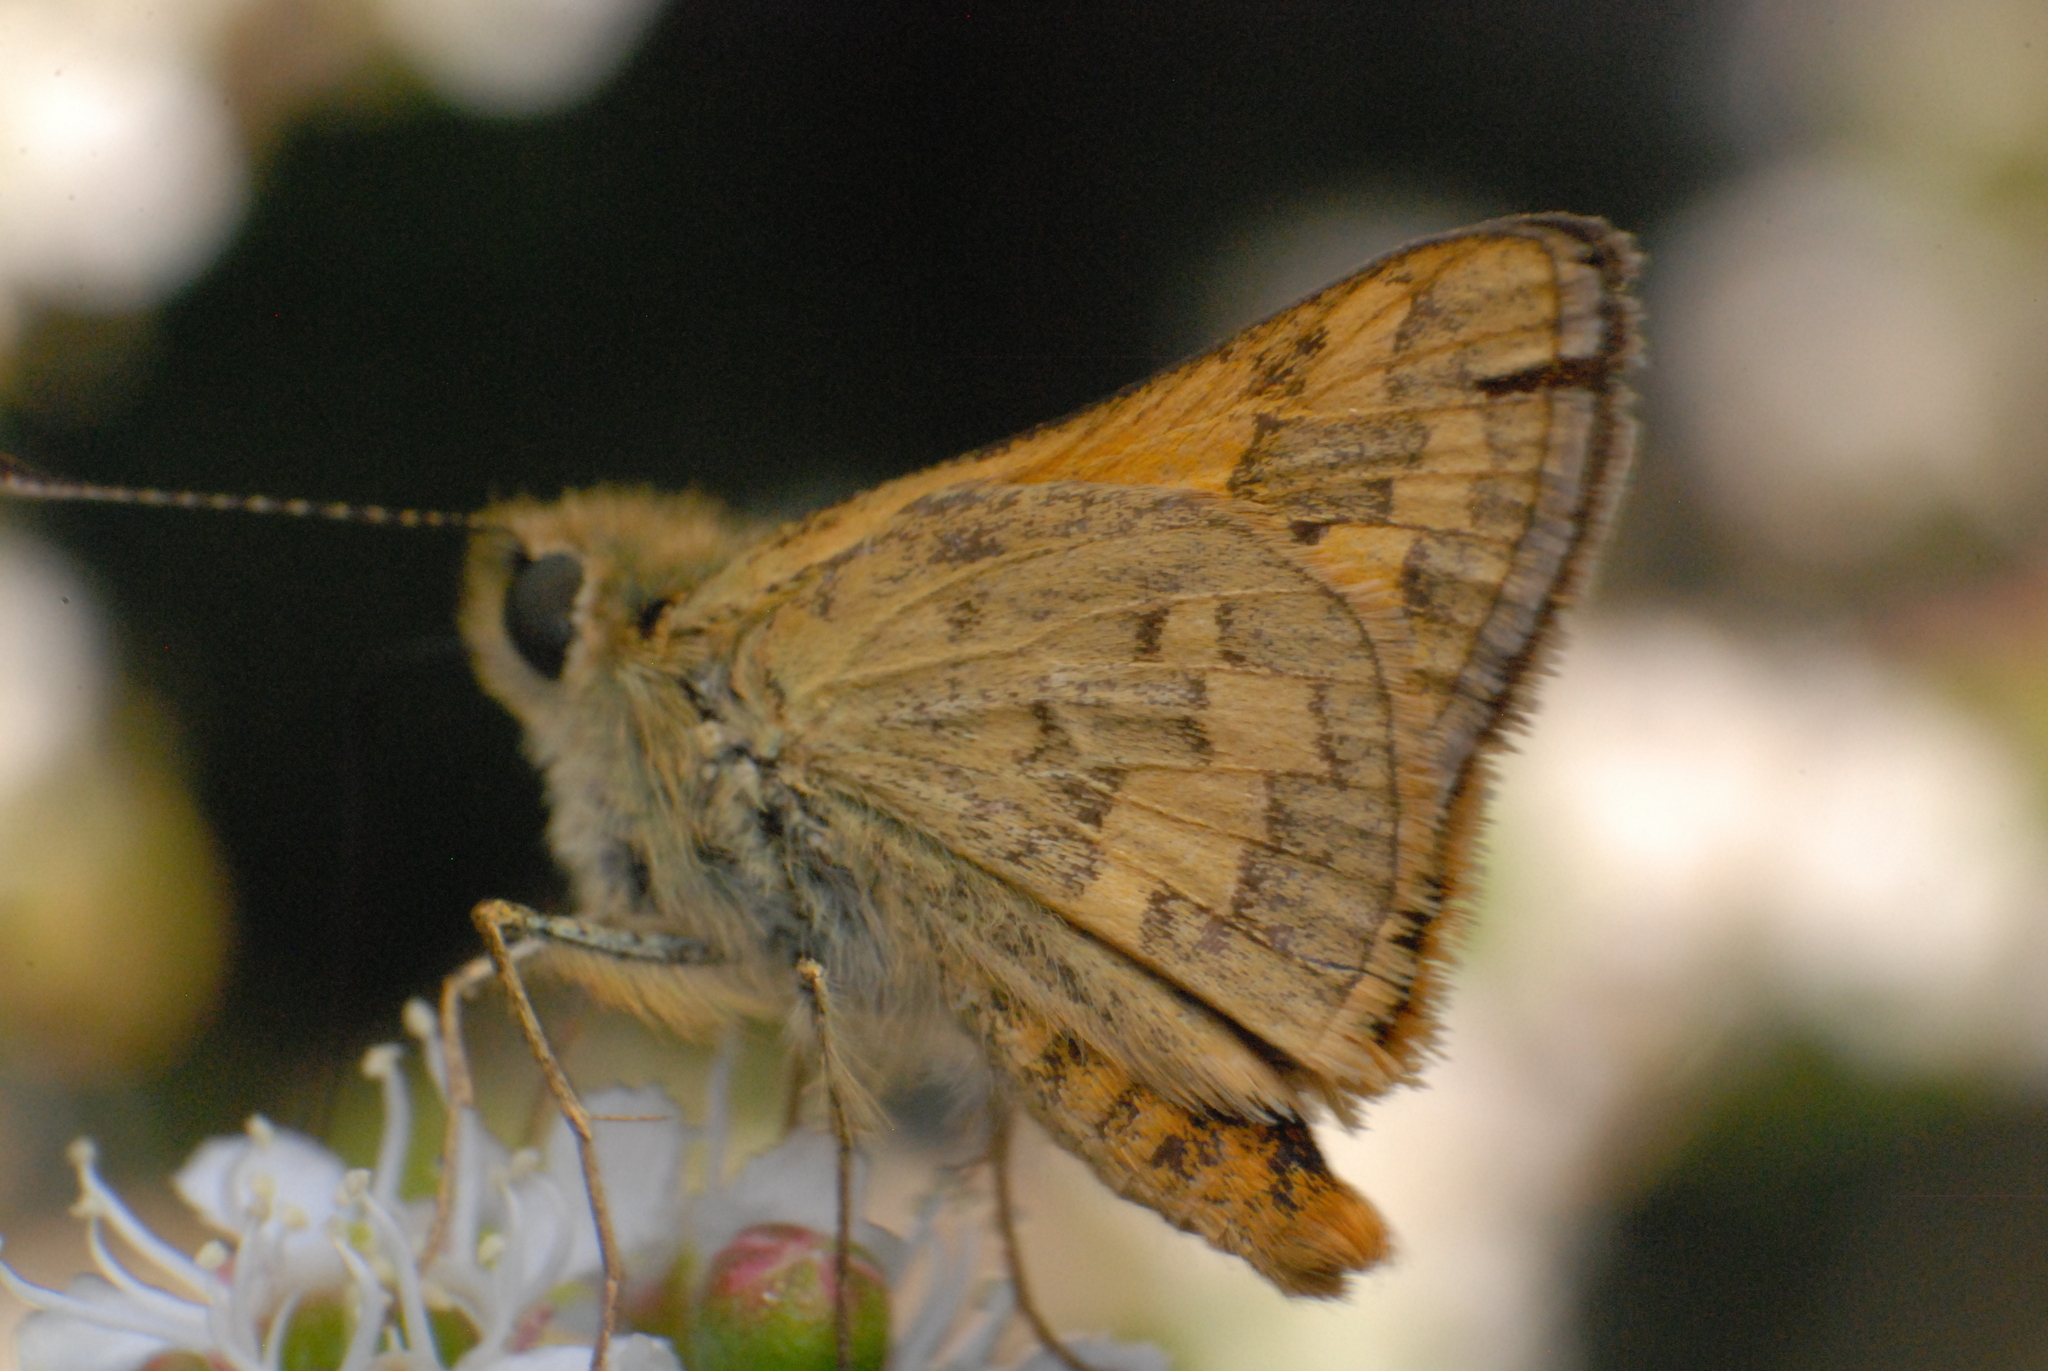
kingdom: Animalia
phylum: Arthropoda
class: Insecta
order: Lepidoptera
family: Hesperiidae
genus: Ocybadistes
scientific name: Ocybadistes walkeri
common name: Yellow-banded dart
